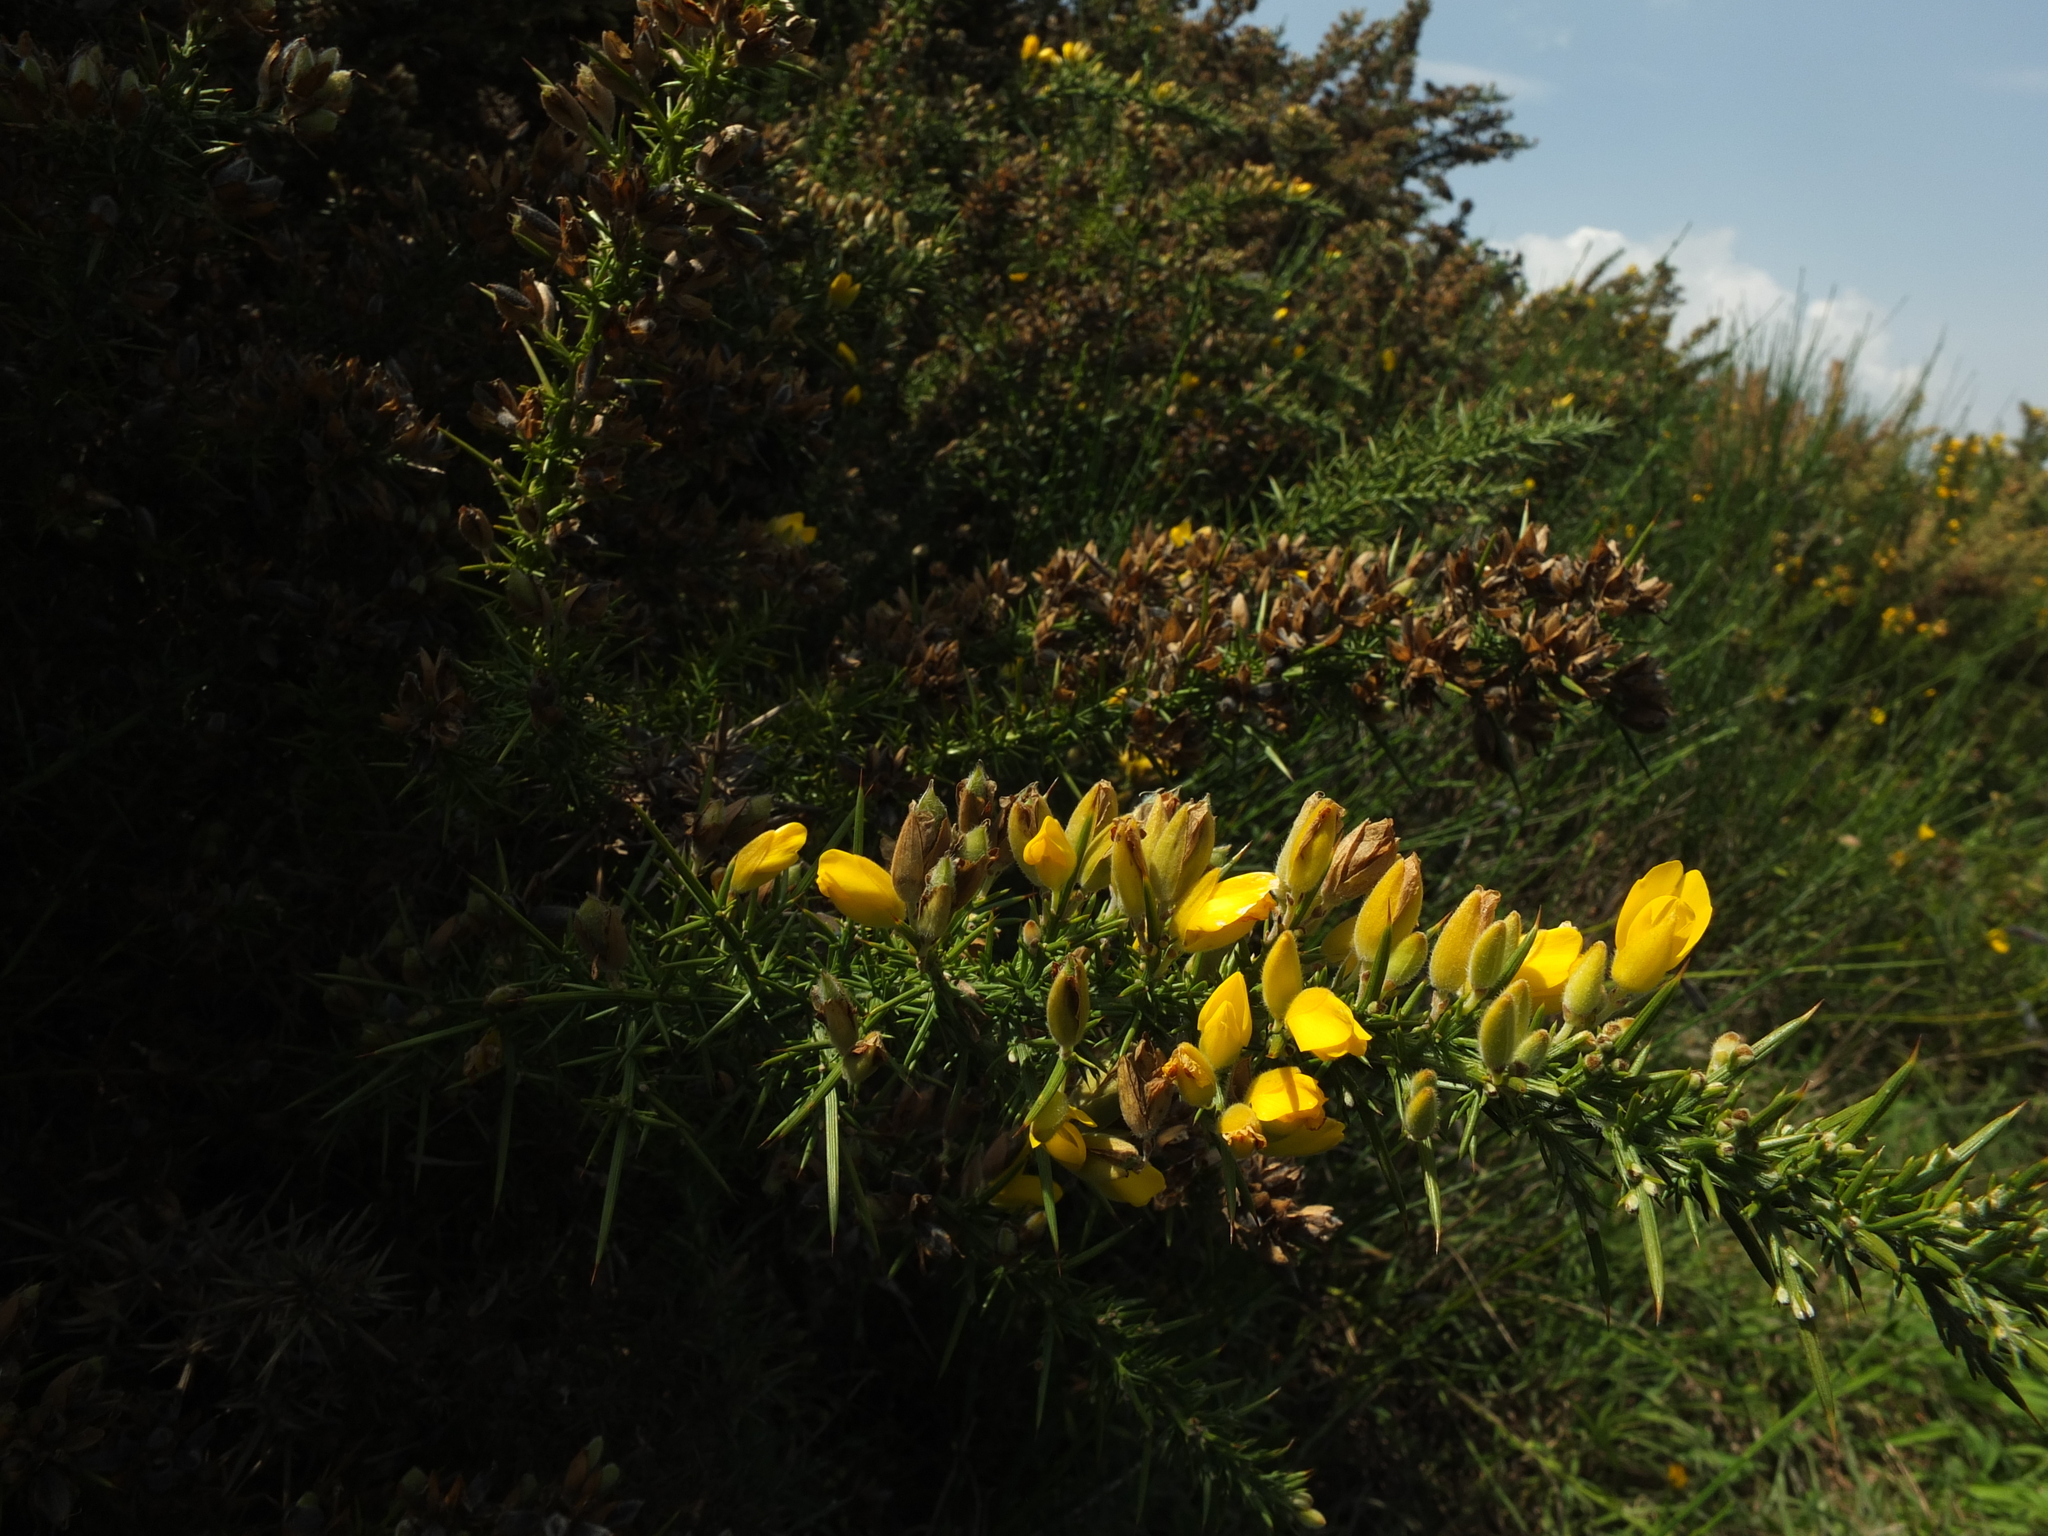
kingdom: Plantae
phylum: Tracheophyta
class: Magnoliopsida
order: Fabales
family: Fabaceae
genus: Ulex
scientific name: Ulex europaeus
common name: Common gorse
